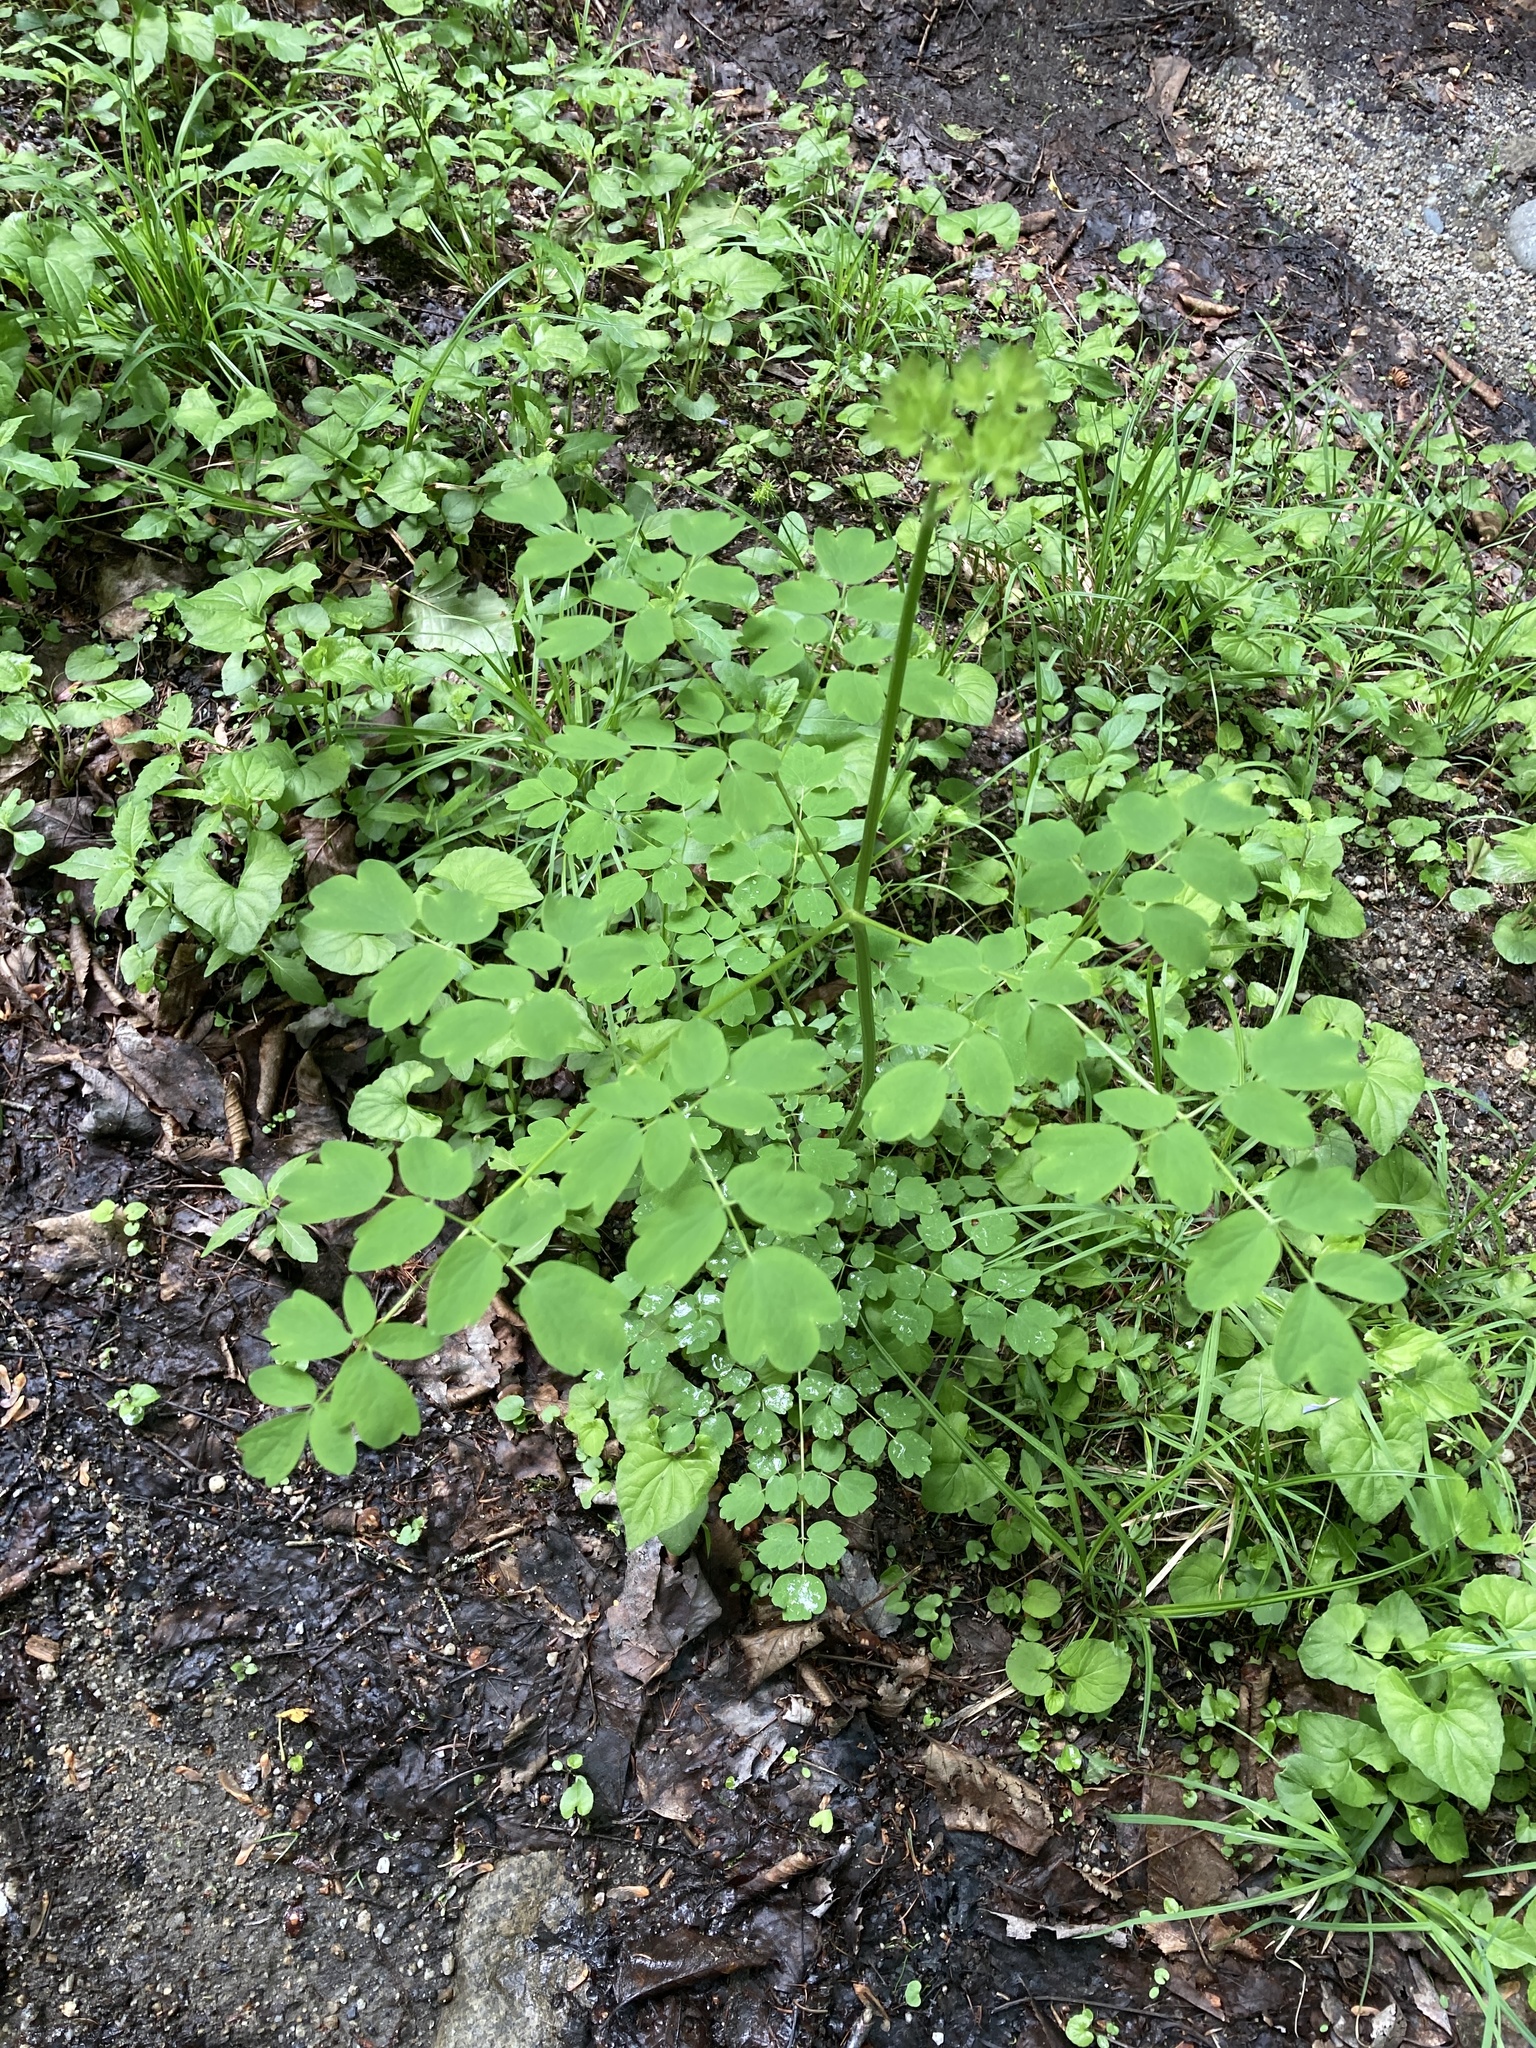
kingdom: Plantae
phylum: Tracheophyta
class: Magnoliopsida
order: Ranunculales
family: Ranunculaceae
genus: Thalictrum
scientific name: Thalictrum pubescens
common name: King-of-the-meadow
